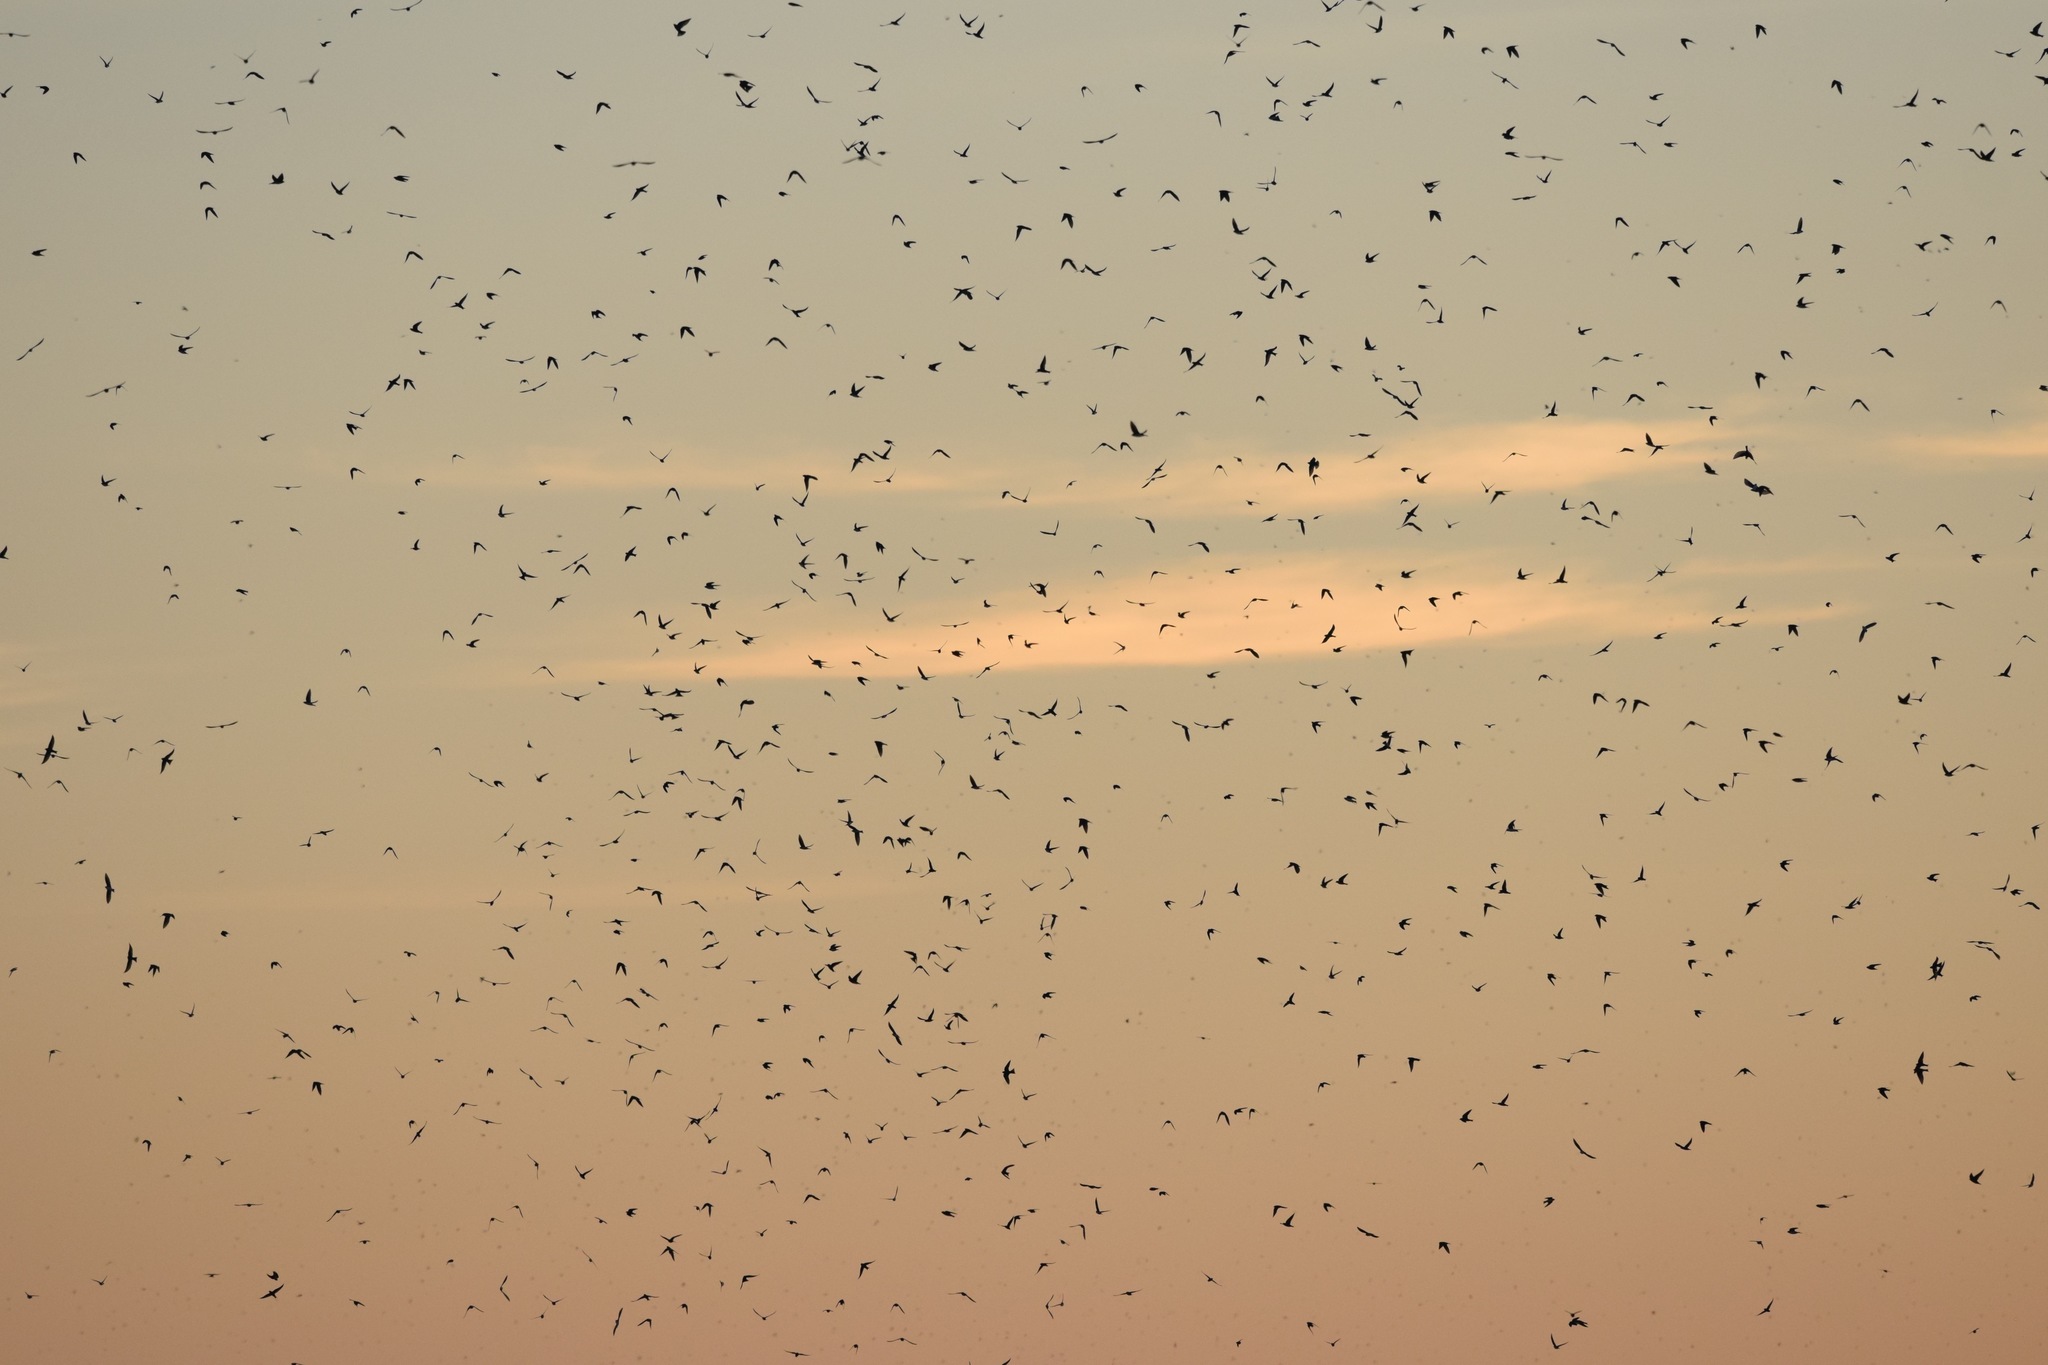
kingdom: Animalia
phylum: Chordata
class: Aves
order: Passeriformes
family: Hirundinidae
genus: Tachycineta
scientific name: Tachycineta bicolor
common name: Tree swallow
